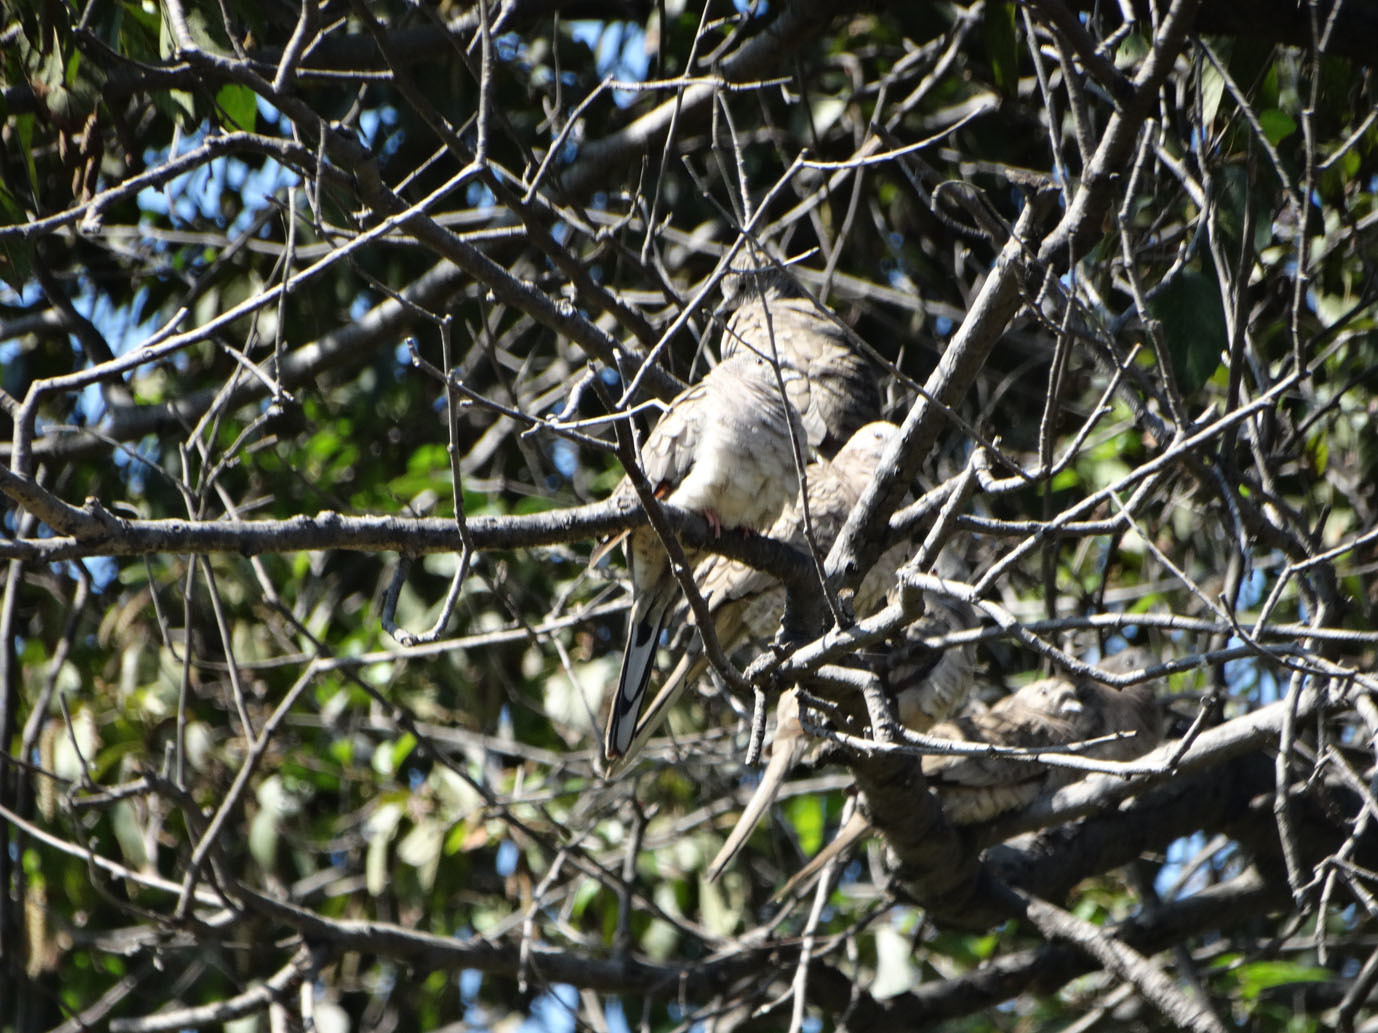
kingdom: Animalia
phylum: Chordata
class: Aves
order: Columbiformes
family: Columbidae
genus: Columbina
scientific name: Columbina inca
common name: Inca dove
